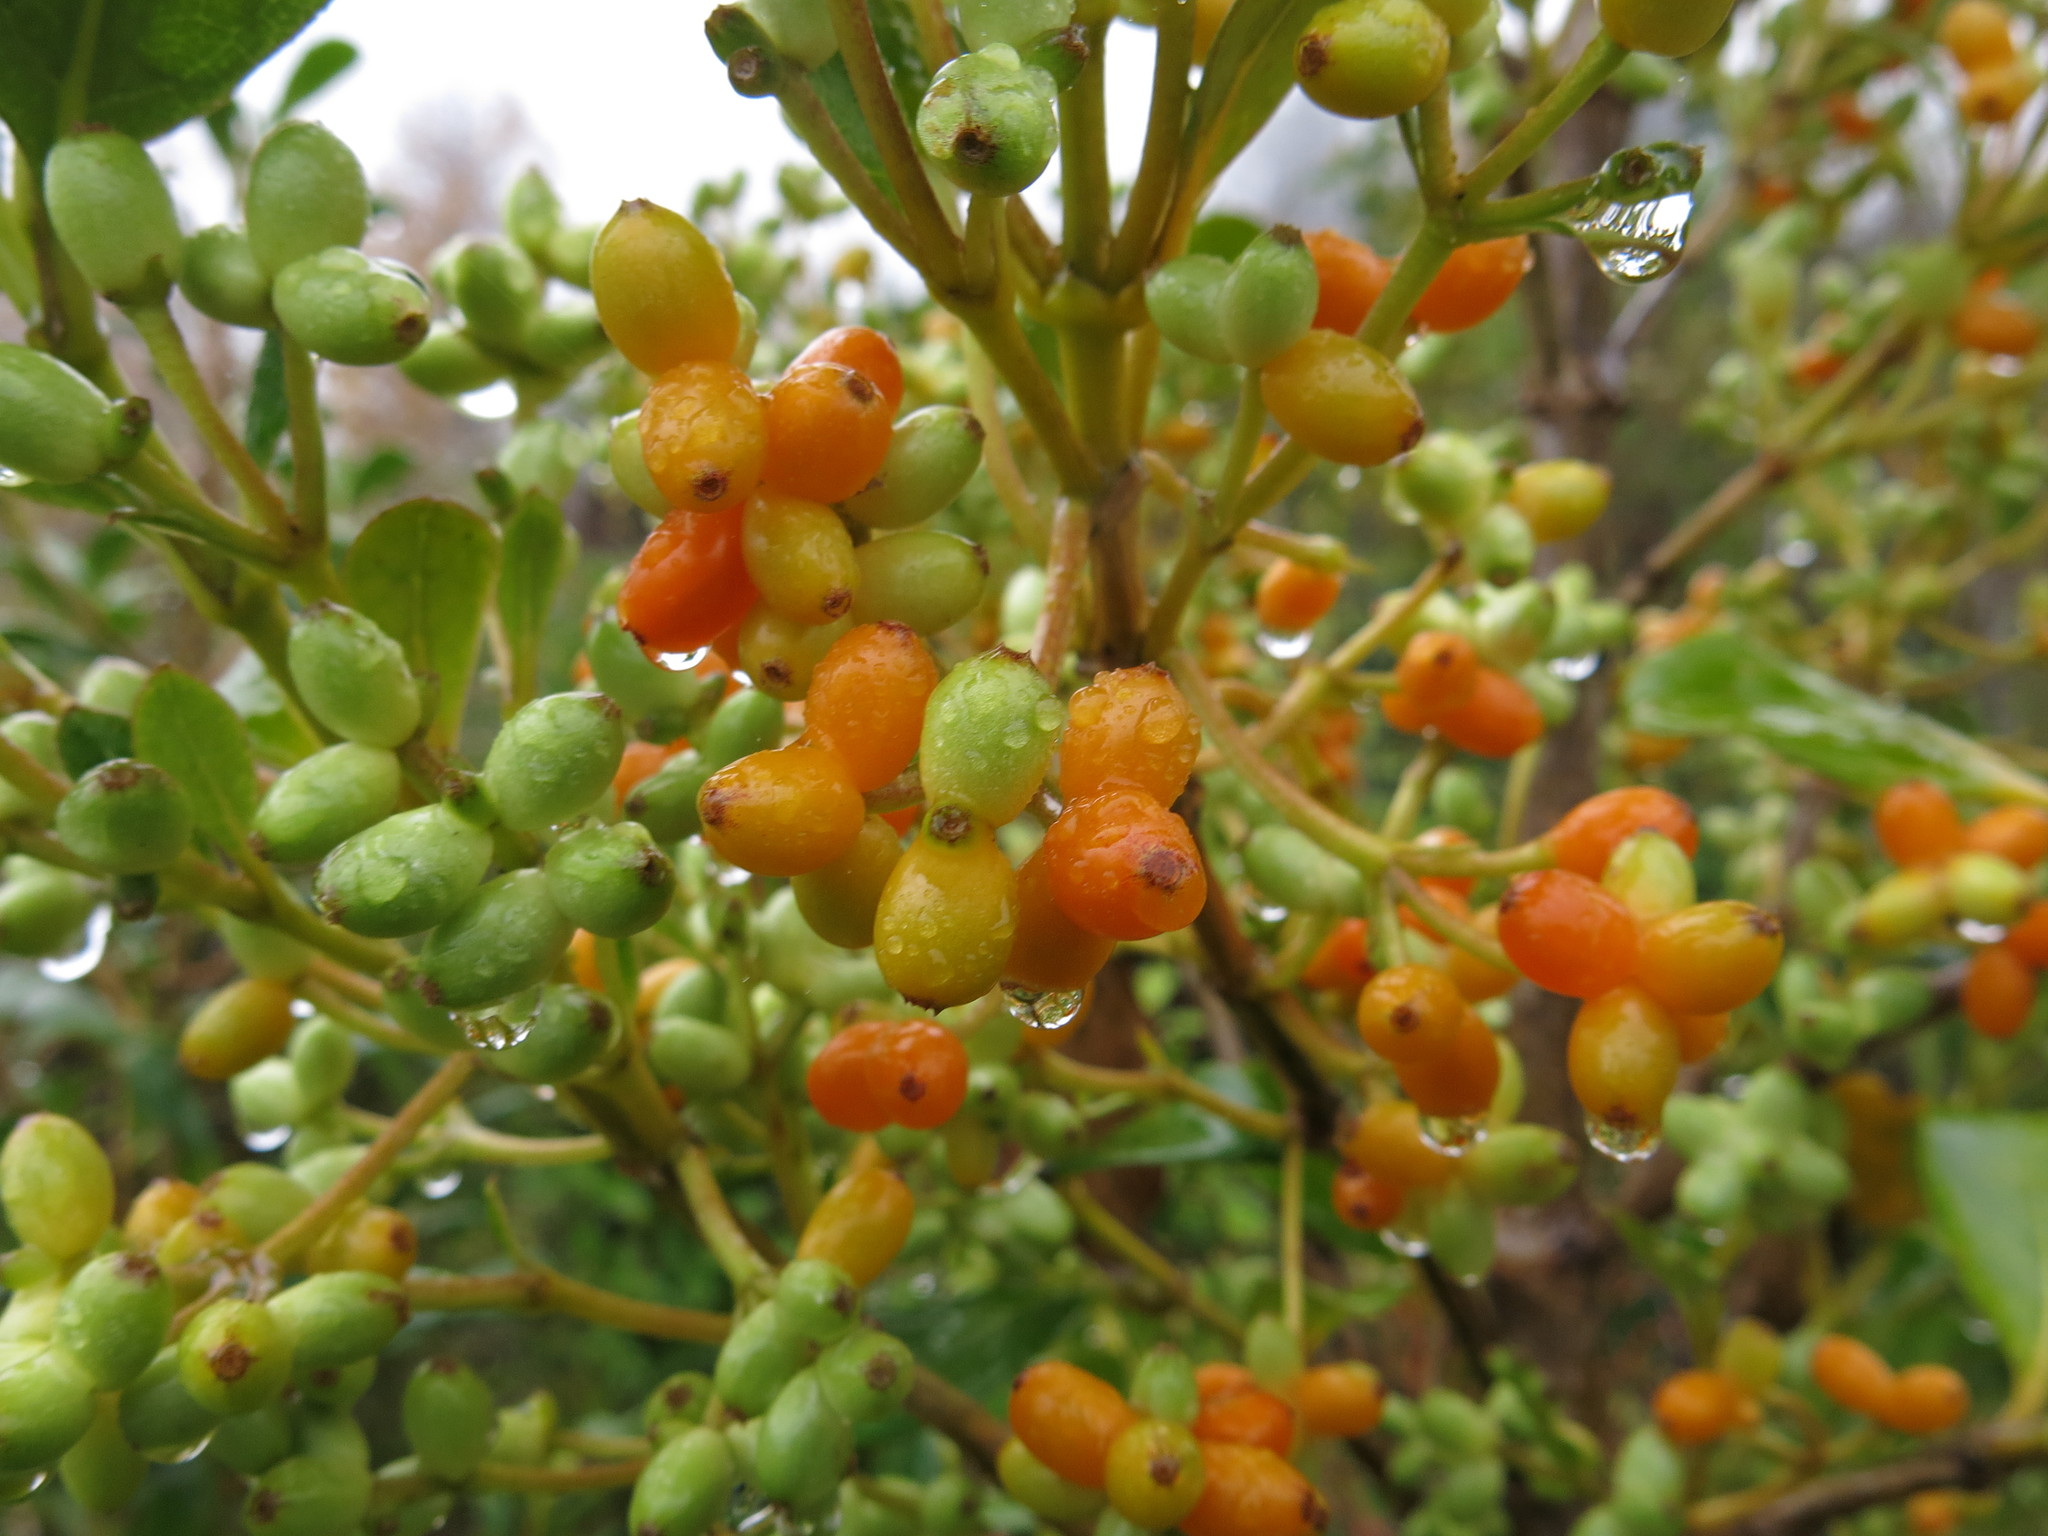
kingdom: Plantae
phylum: Tracheophyta
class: Magnoliopsida
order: Gentianales
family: Rubiaceae
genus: Coprosma
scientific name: Coprosma lucida
